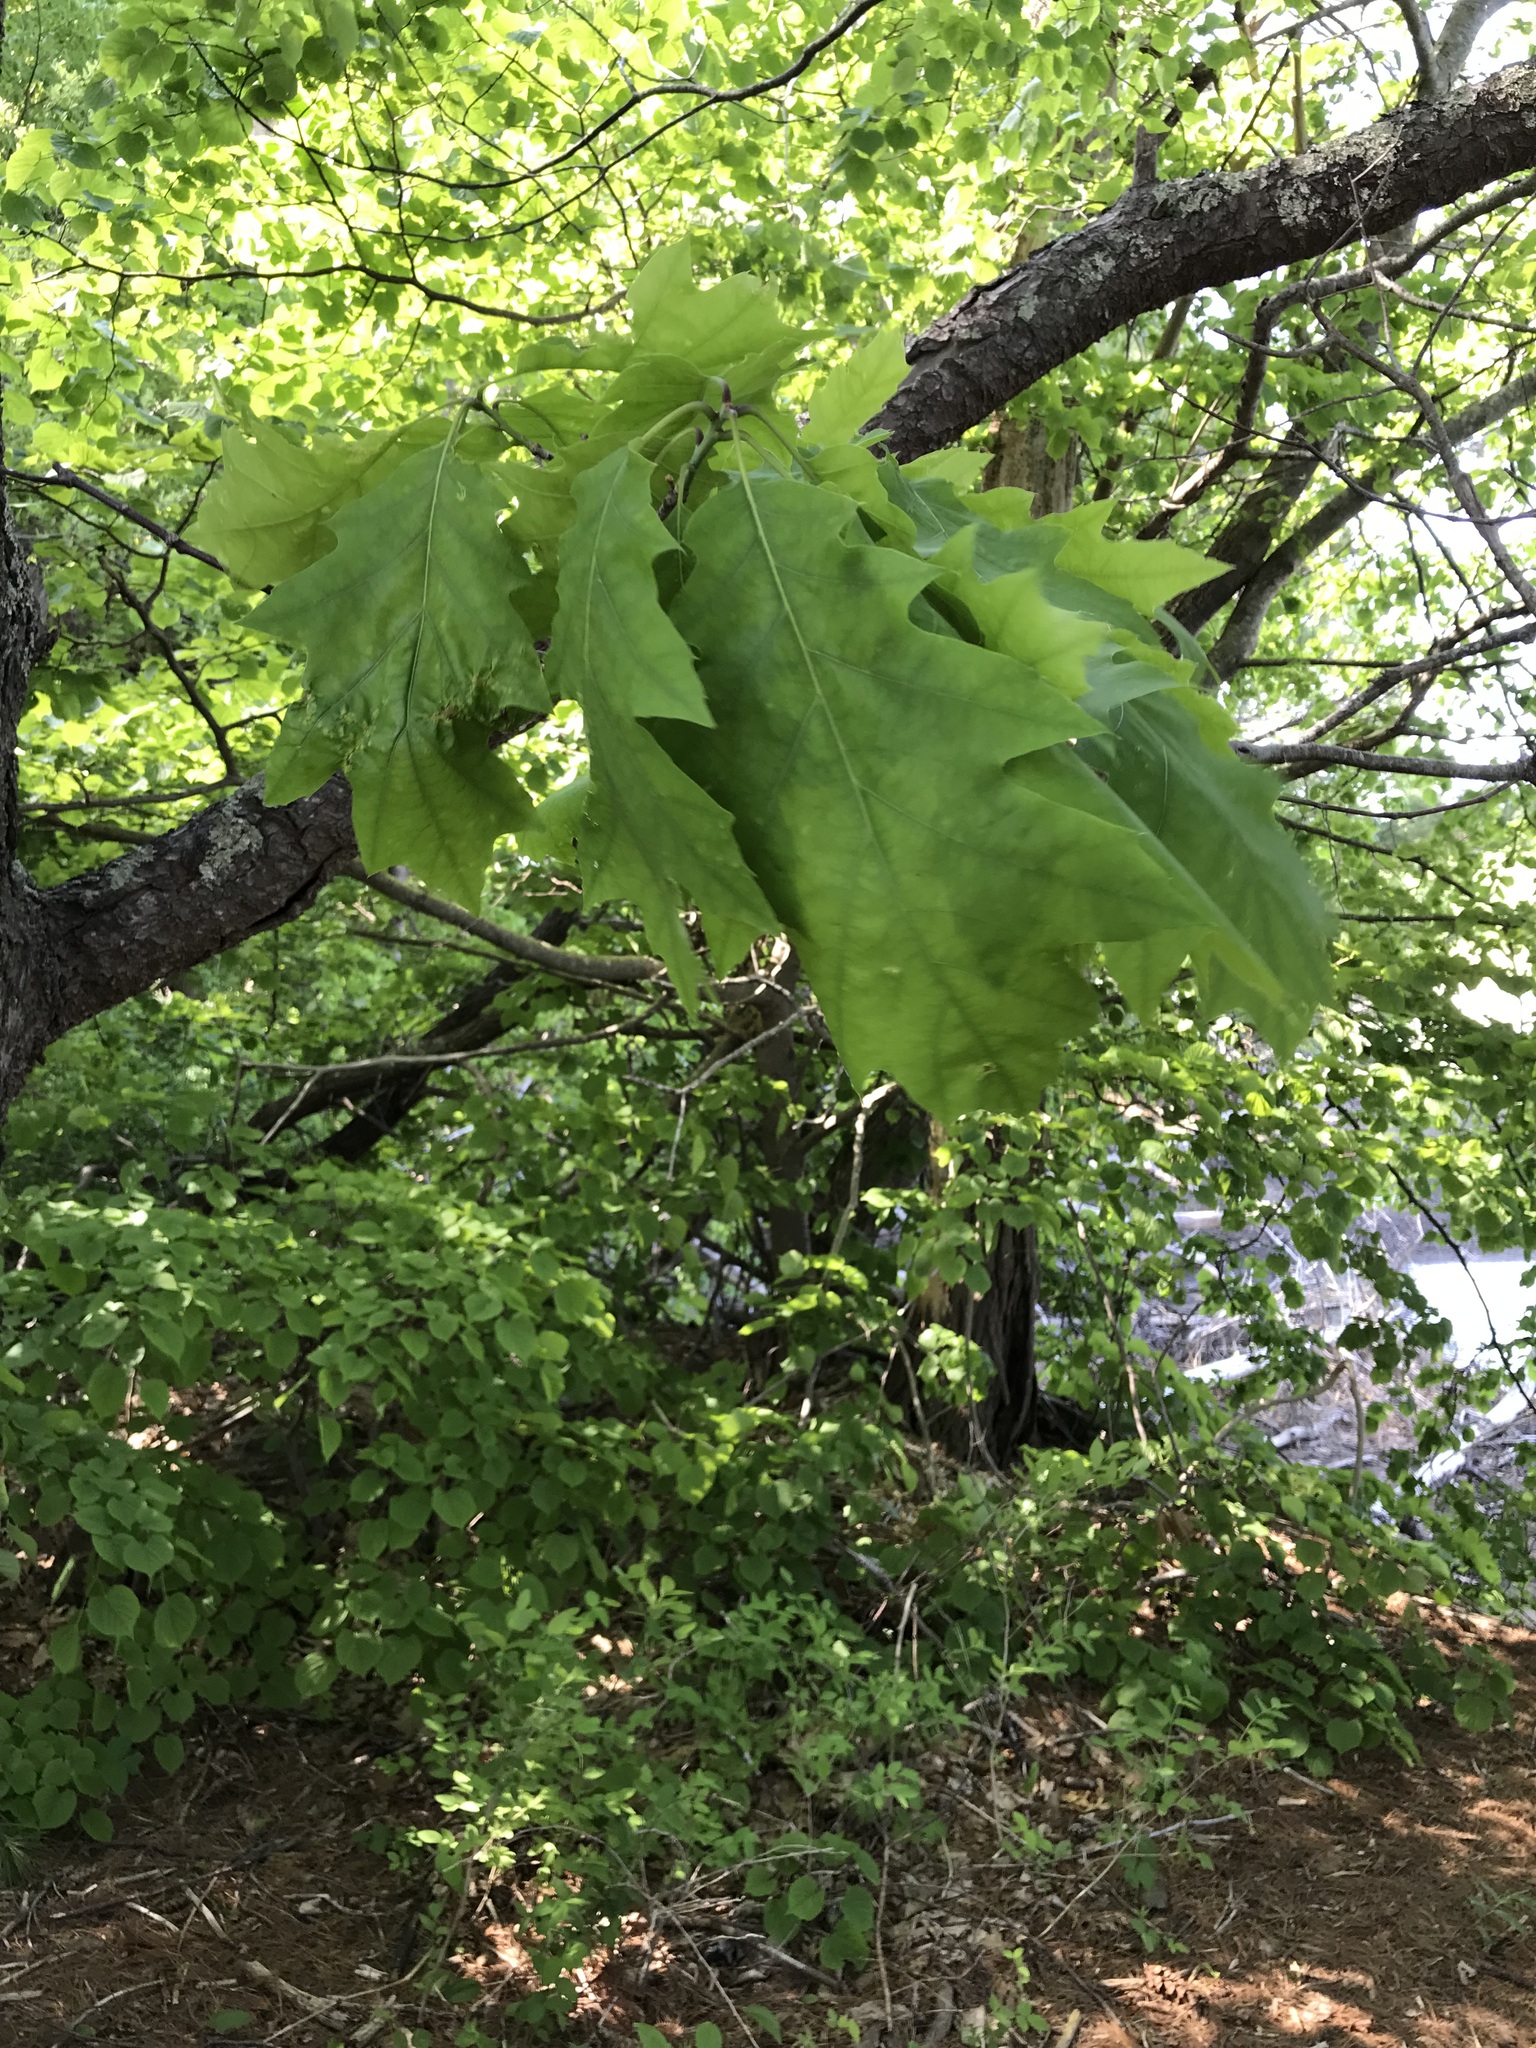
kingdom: Plantae
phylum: Tracheophyta
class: Magnoliopsida
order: Fagales
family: Fagaceae
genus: Quercus
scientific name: Quercus rubra
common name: Red oak
